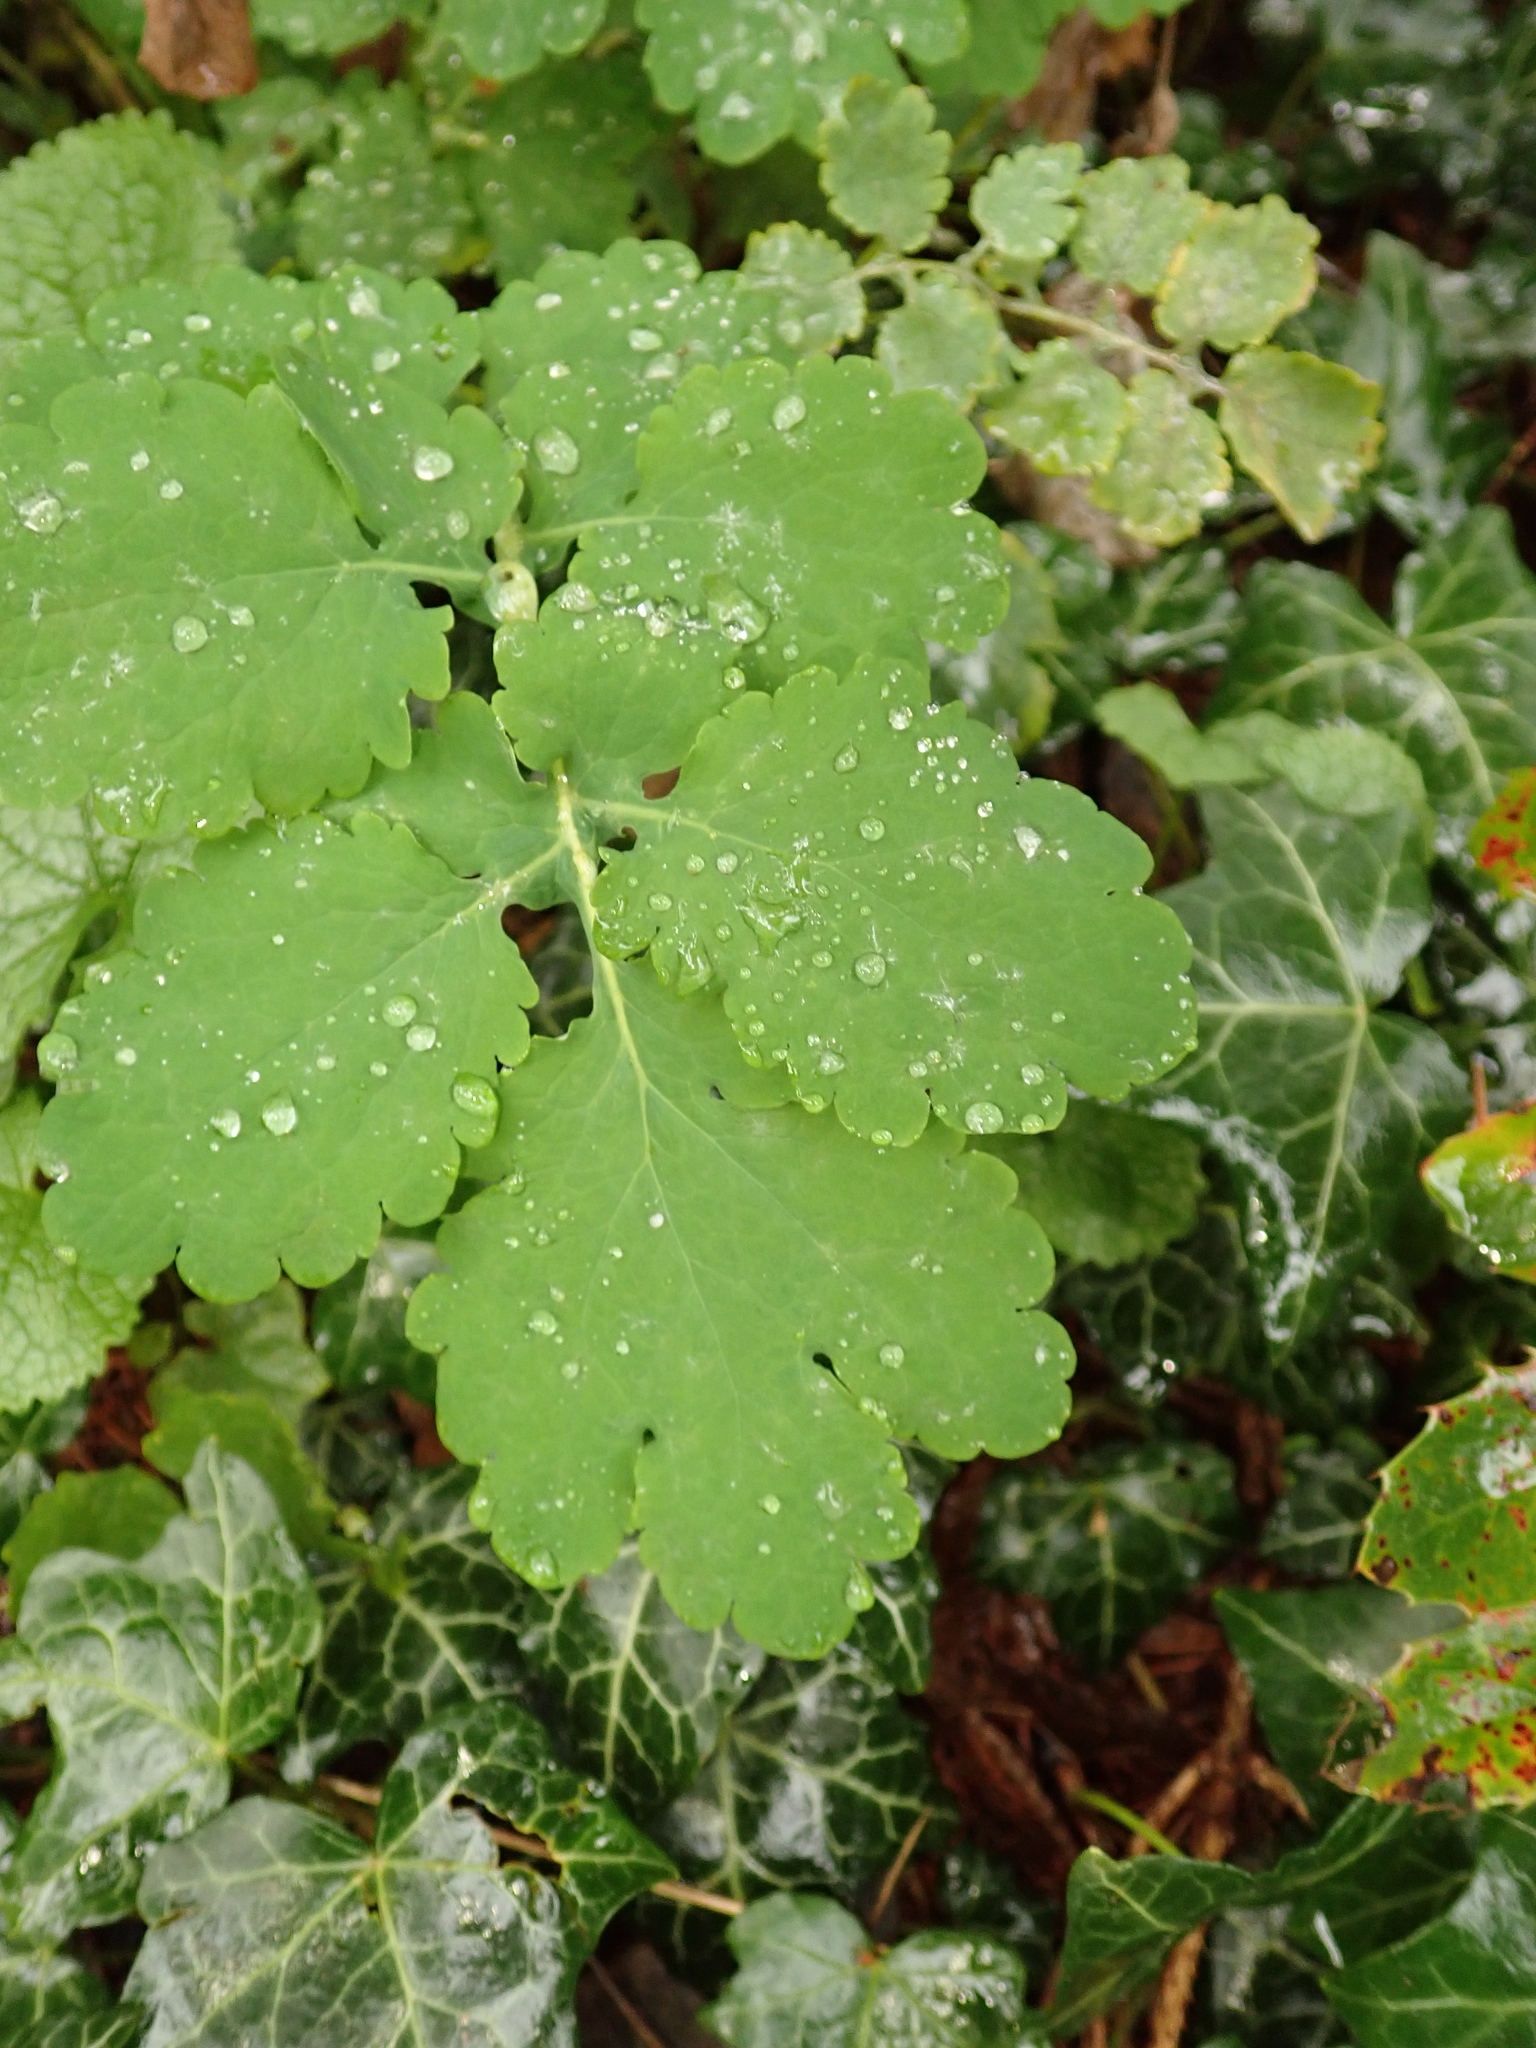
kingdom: Plantae
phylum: Tracheophyta
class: Magnoliopsida
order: Ranunculales
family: Papaveraceae
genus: Chelidonium
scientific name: Chelidonium majus
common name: Greater celandine
